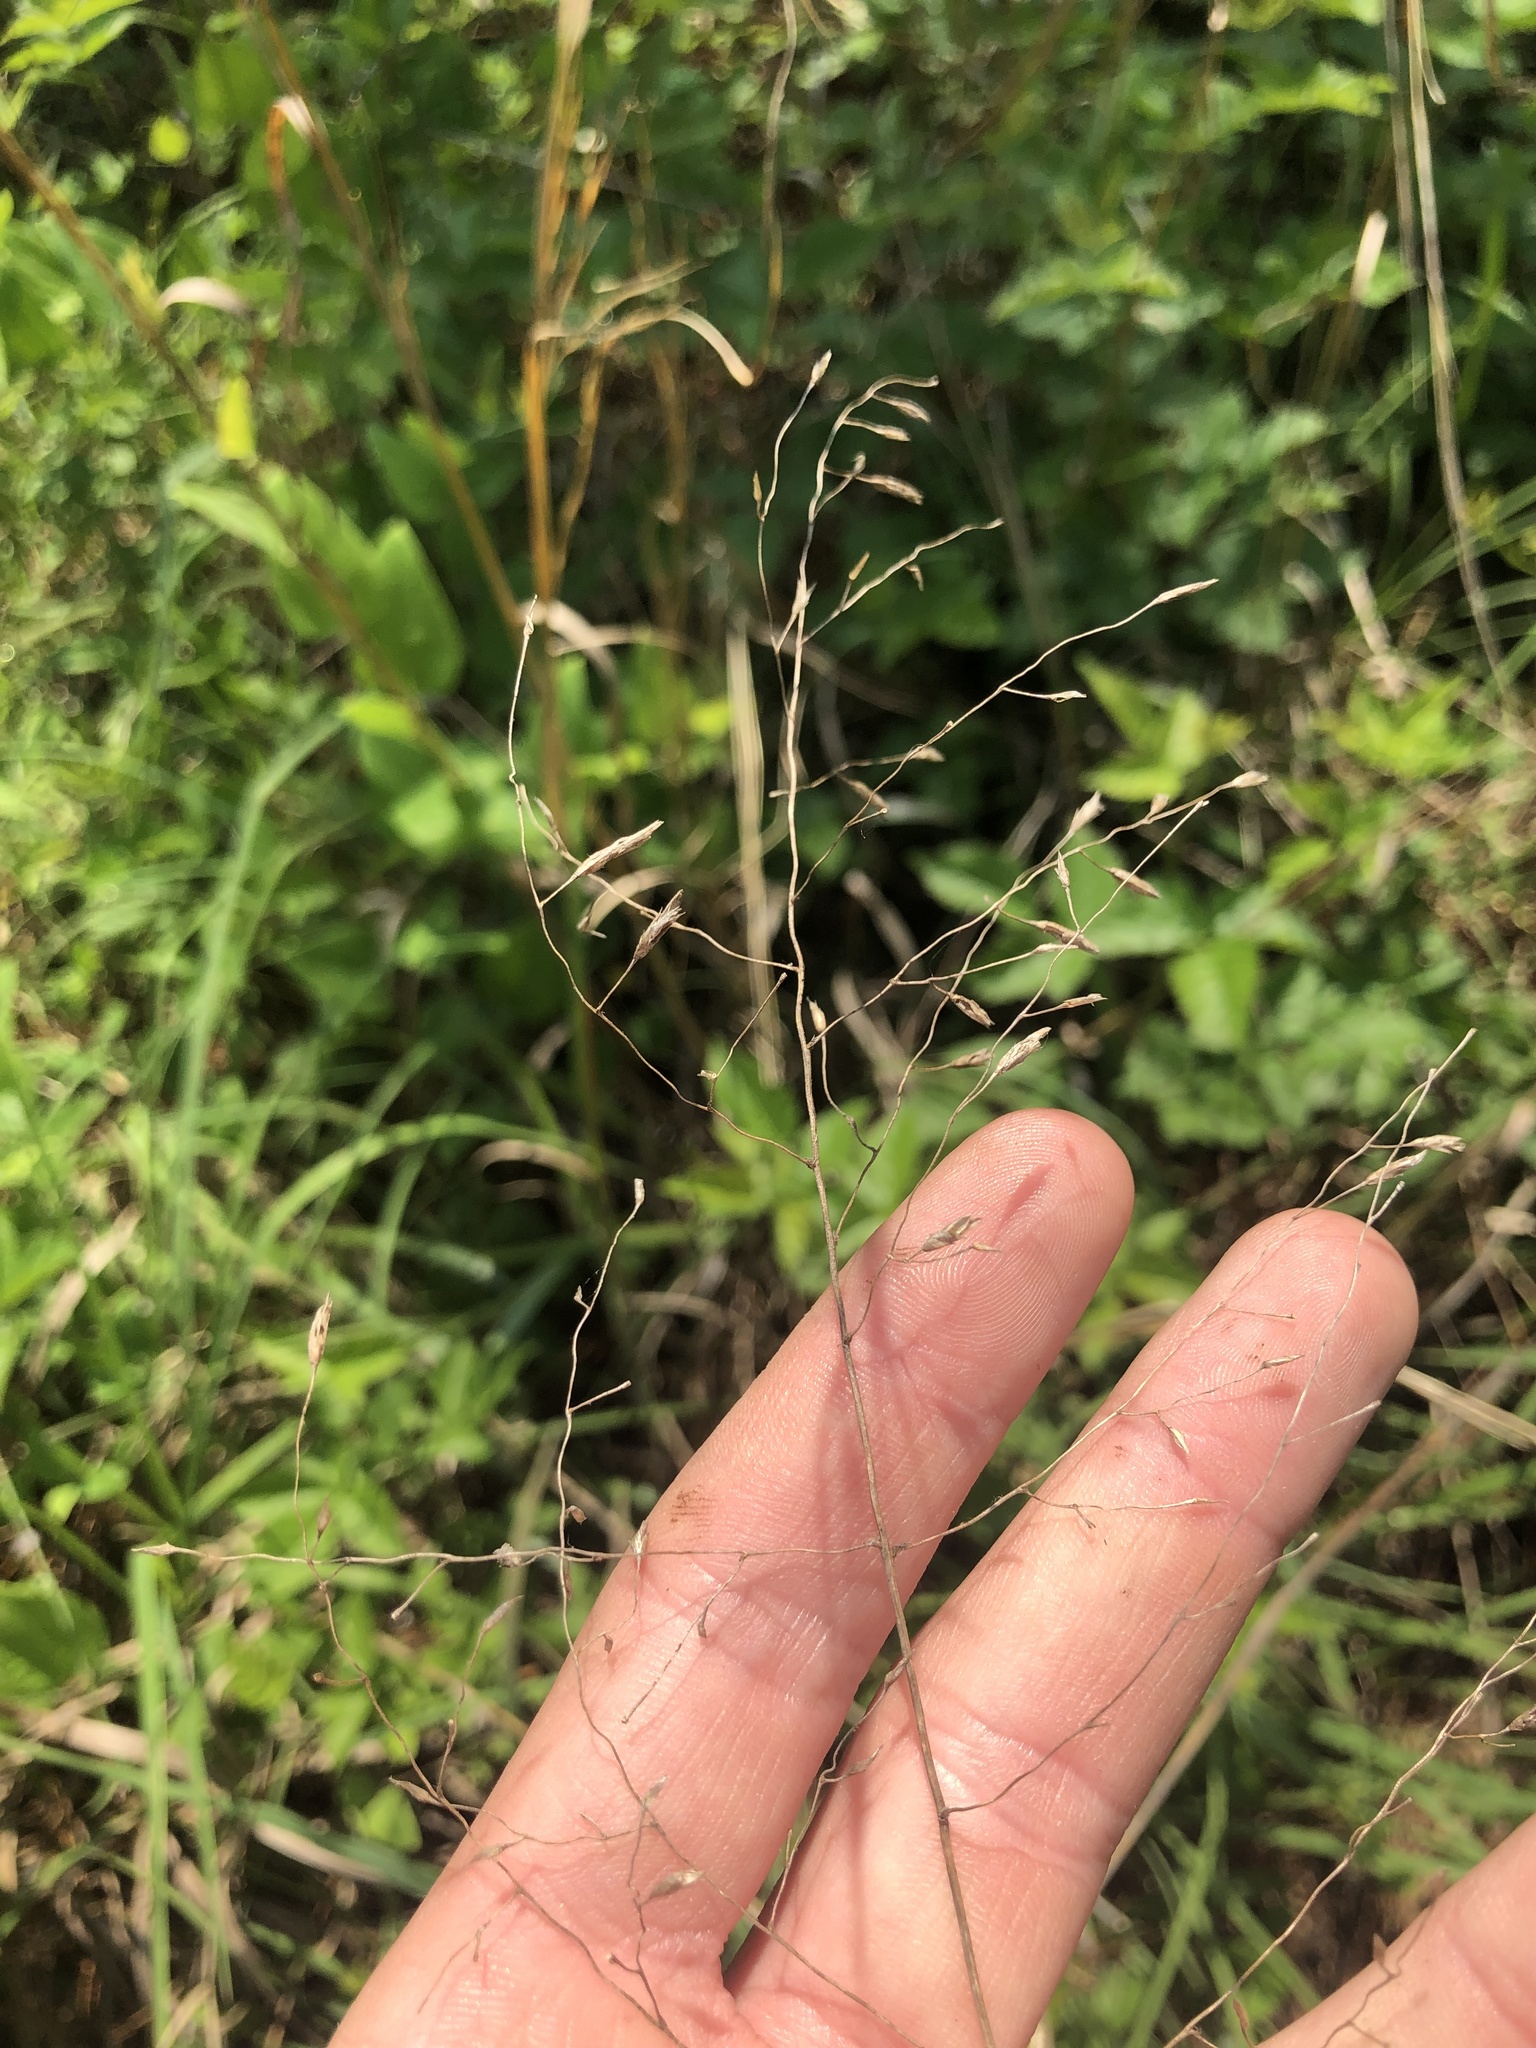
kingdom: Plantae
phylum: Tracheophyta
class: Liliopsida
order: Poales
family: Poaceae
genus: Tridens
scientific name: Tridens chapmanii
